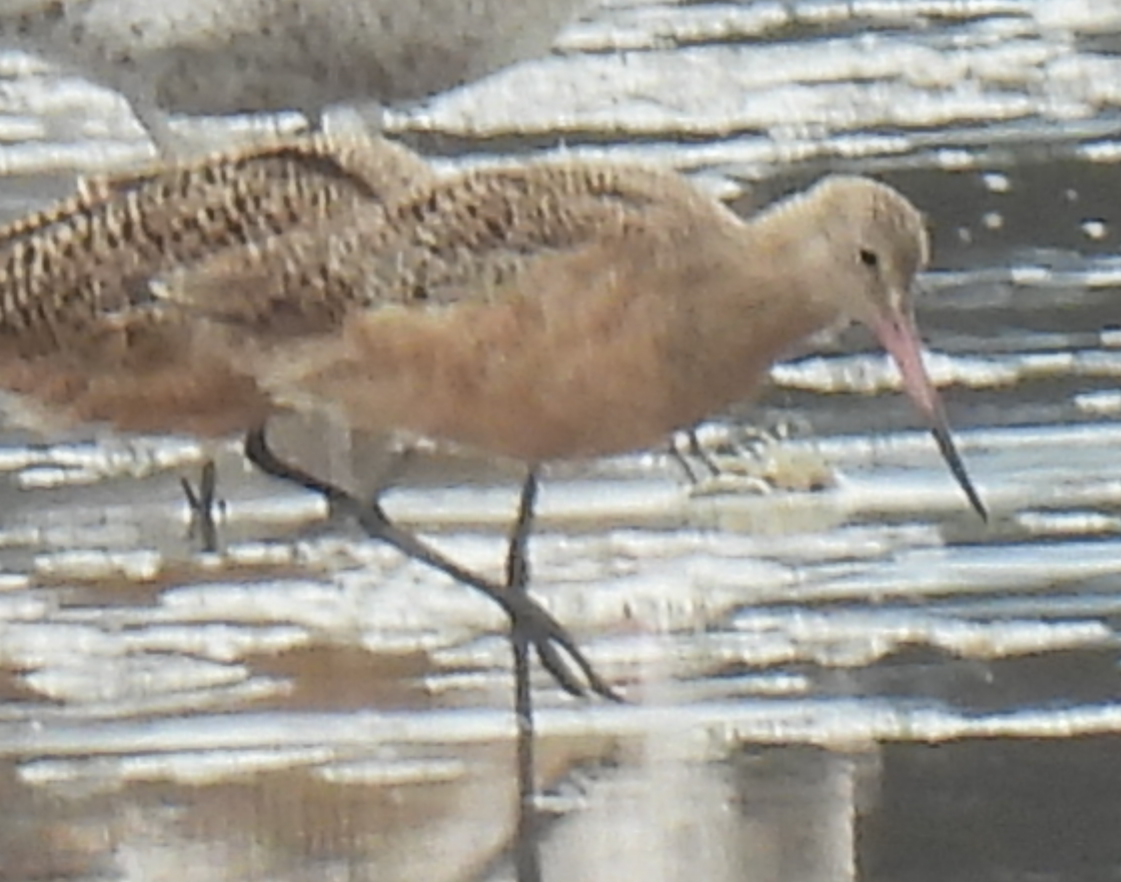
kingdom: Animalia
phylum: Chordata
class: Aves
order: Charadriiformes
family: Scolopacidae
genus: Limosa
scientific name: Limosa fedoa
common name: Marbled godwit
